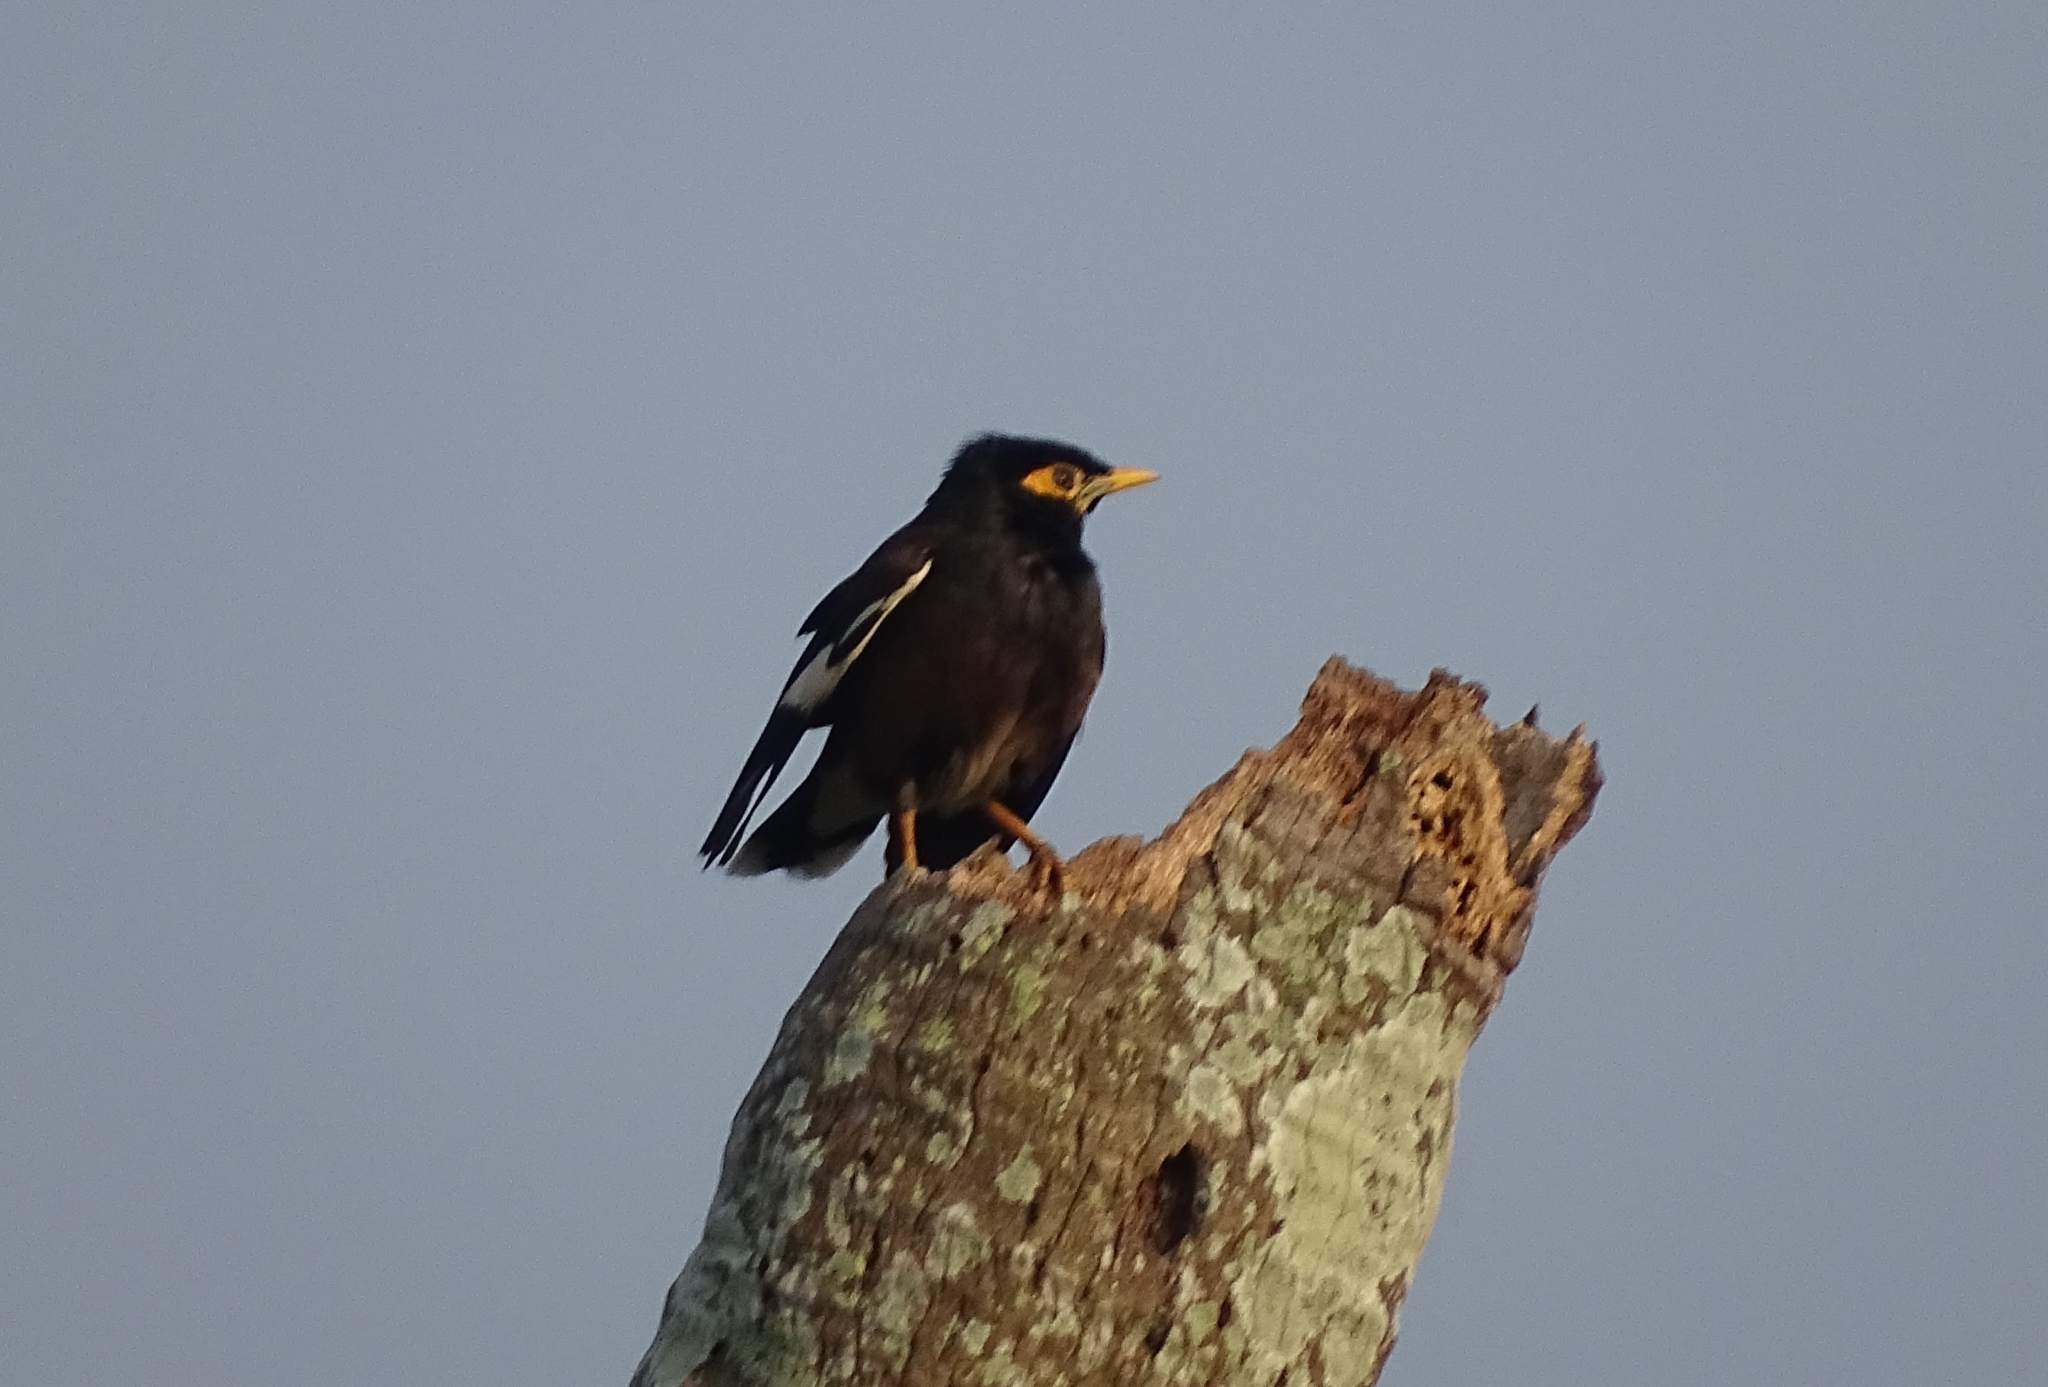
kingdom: Animalia
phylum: Chordata
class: Aves
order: Passeriformes
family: Sturnidae
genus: Acridotheres
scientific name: Acridotheres tristis
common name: Common myna
